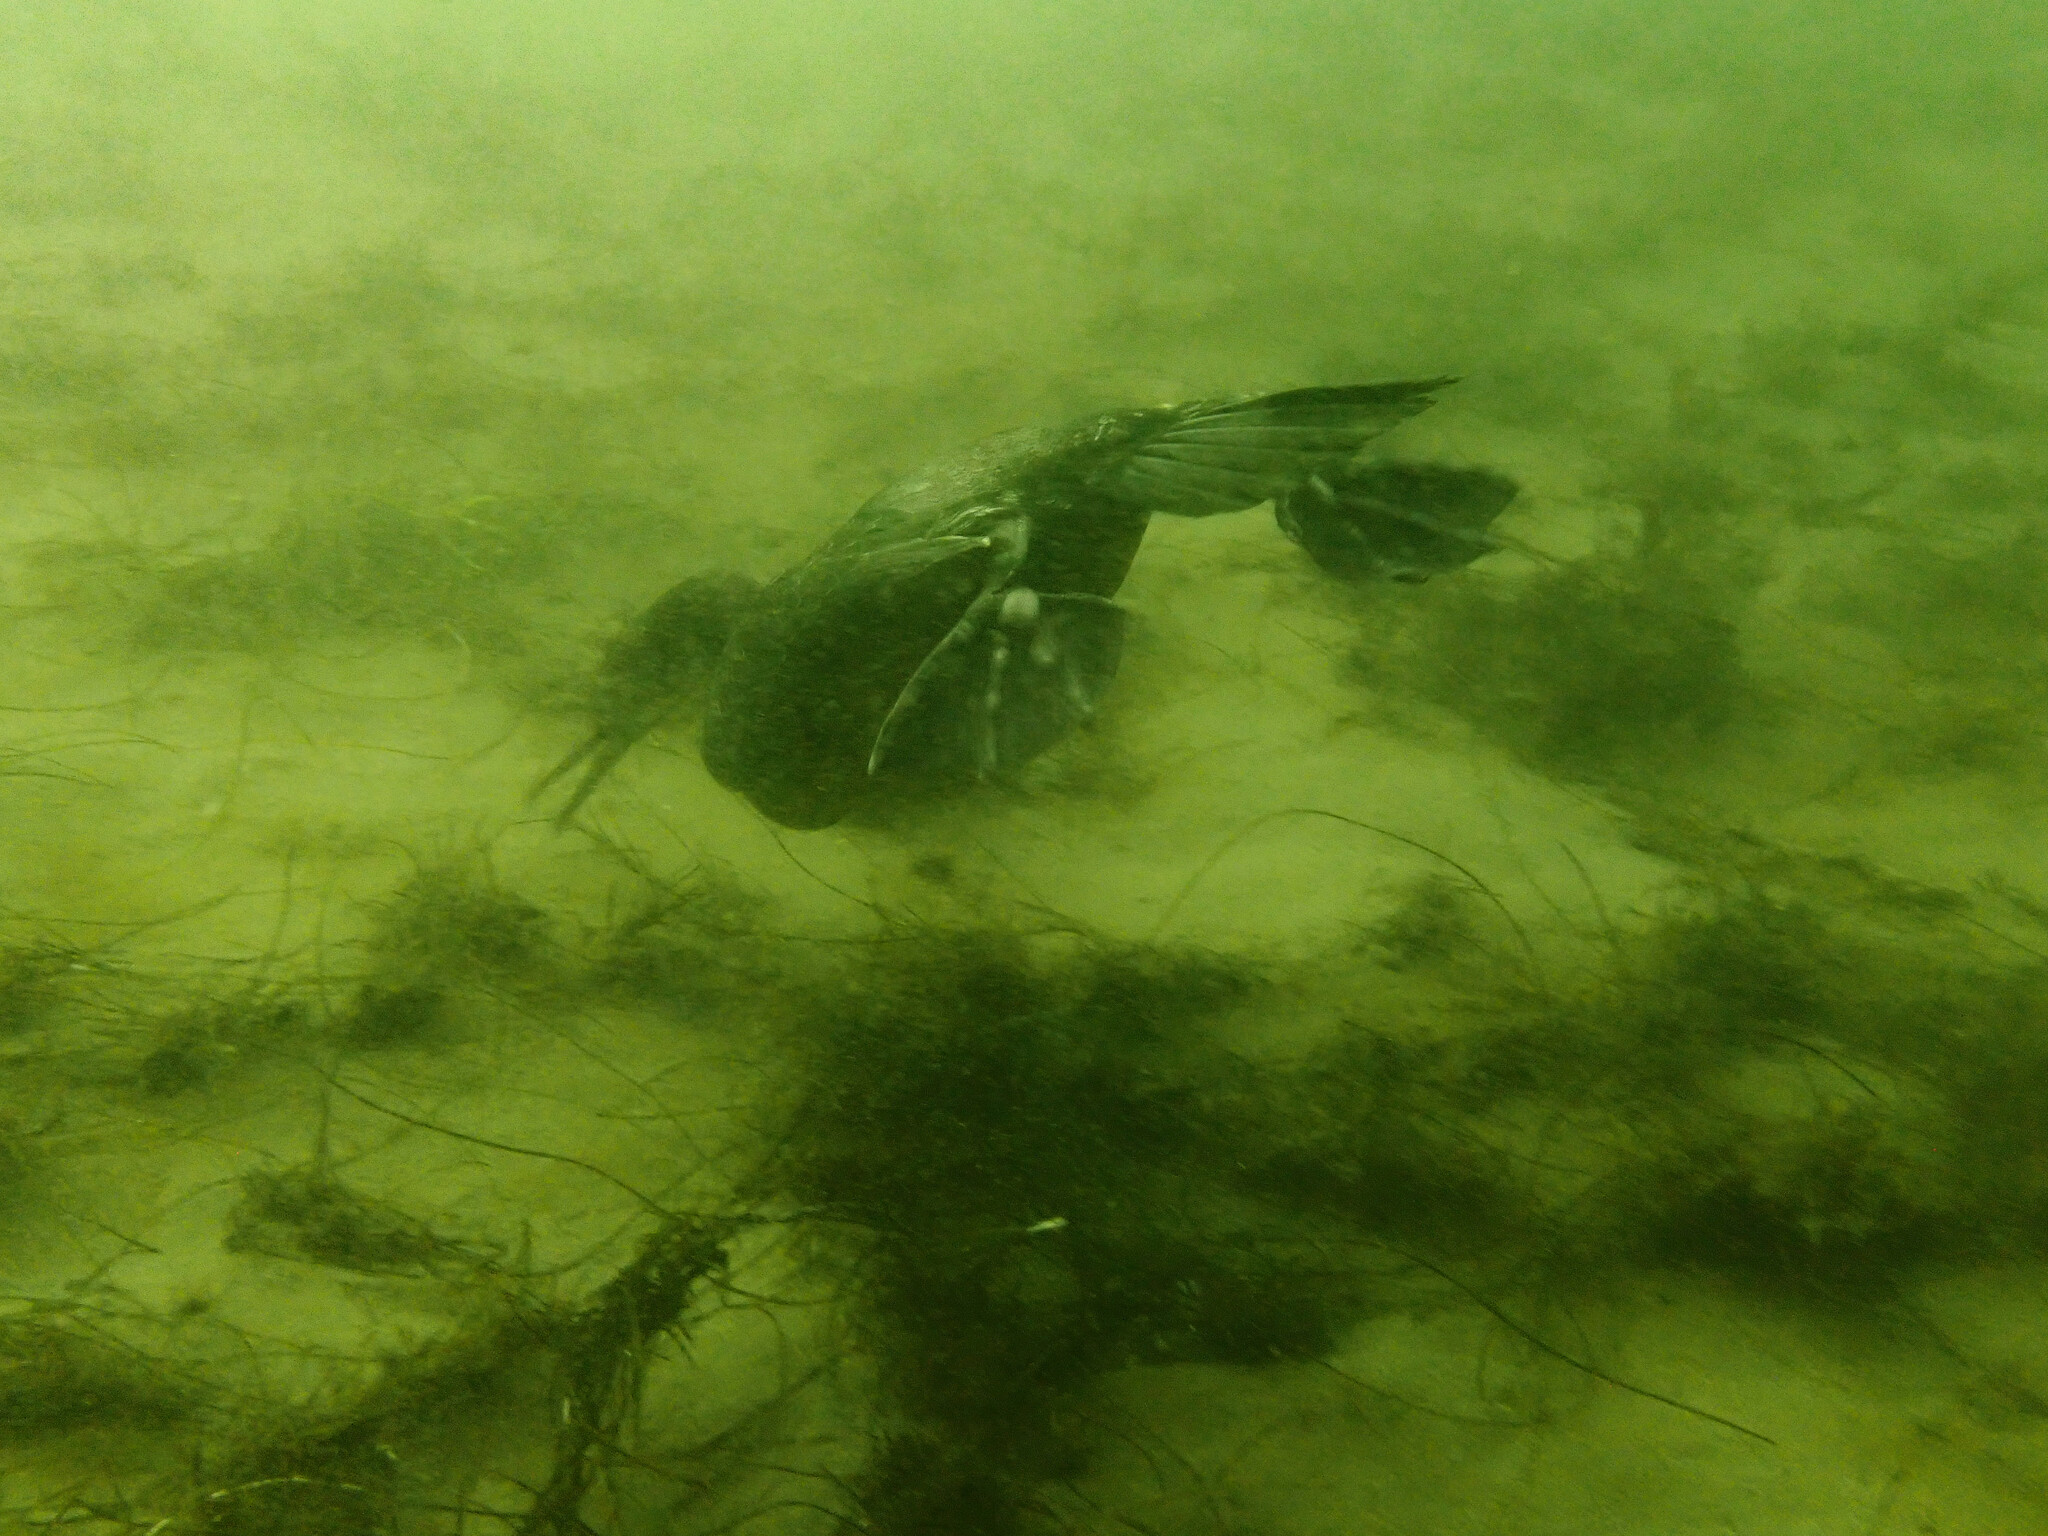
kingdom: Animalia
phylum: Chordata
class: Aves
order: Suliformes
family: Phalacrocoracidae
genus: Urile
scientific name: Urile penicillatus
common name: Brandt's cormorant
